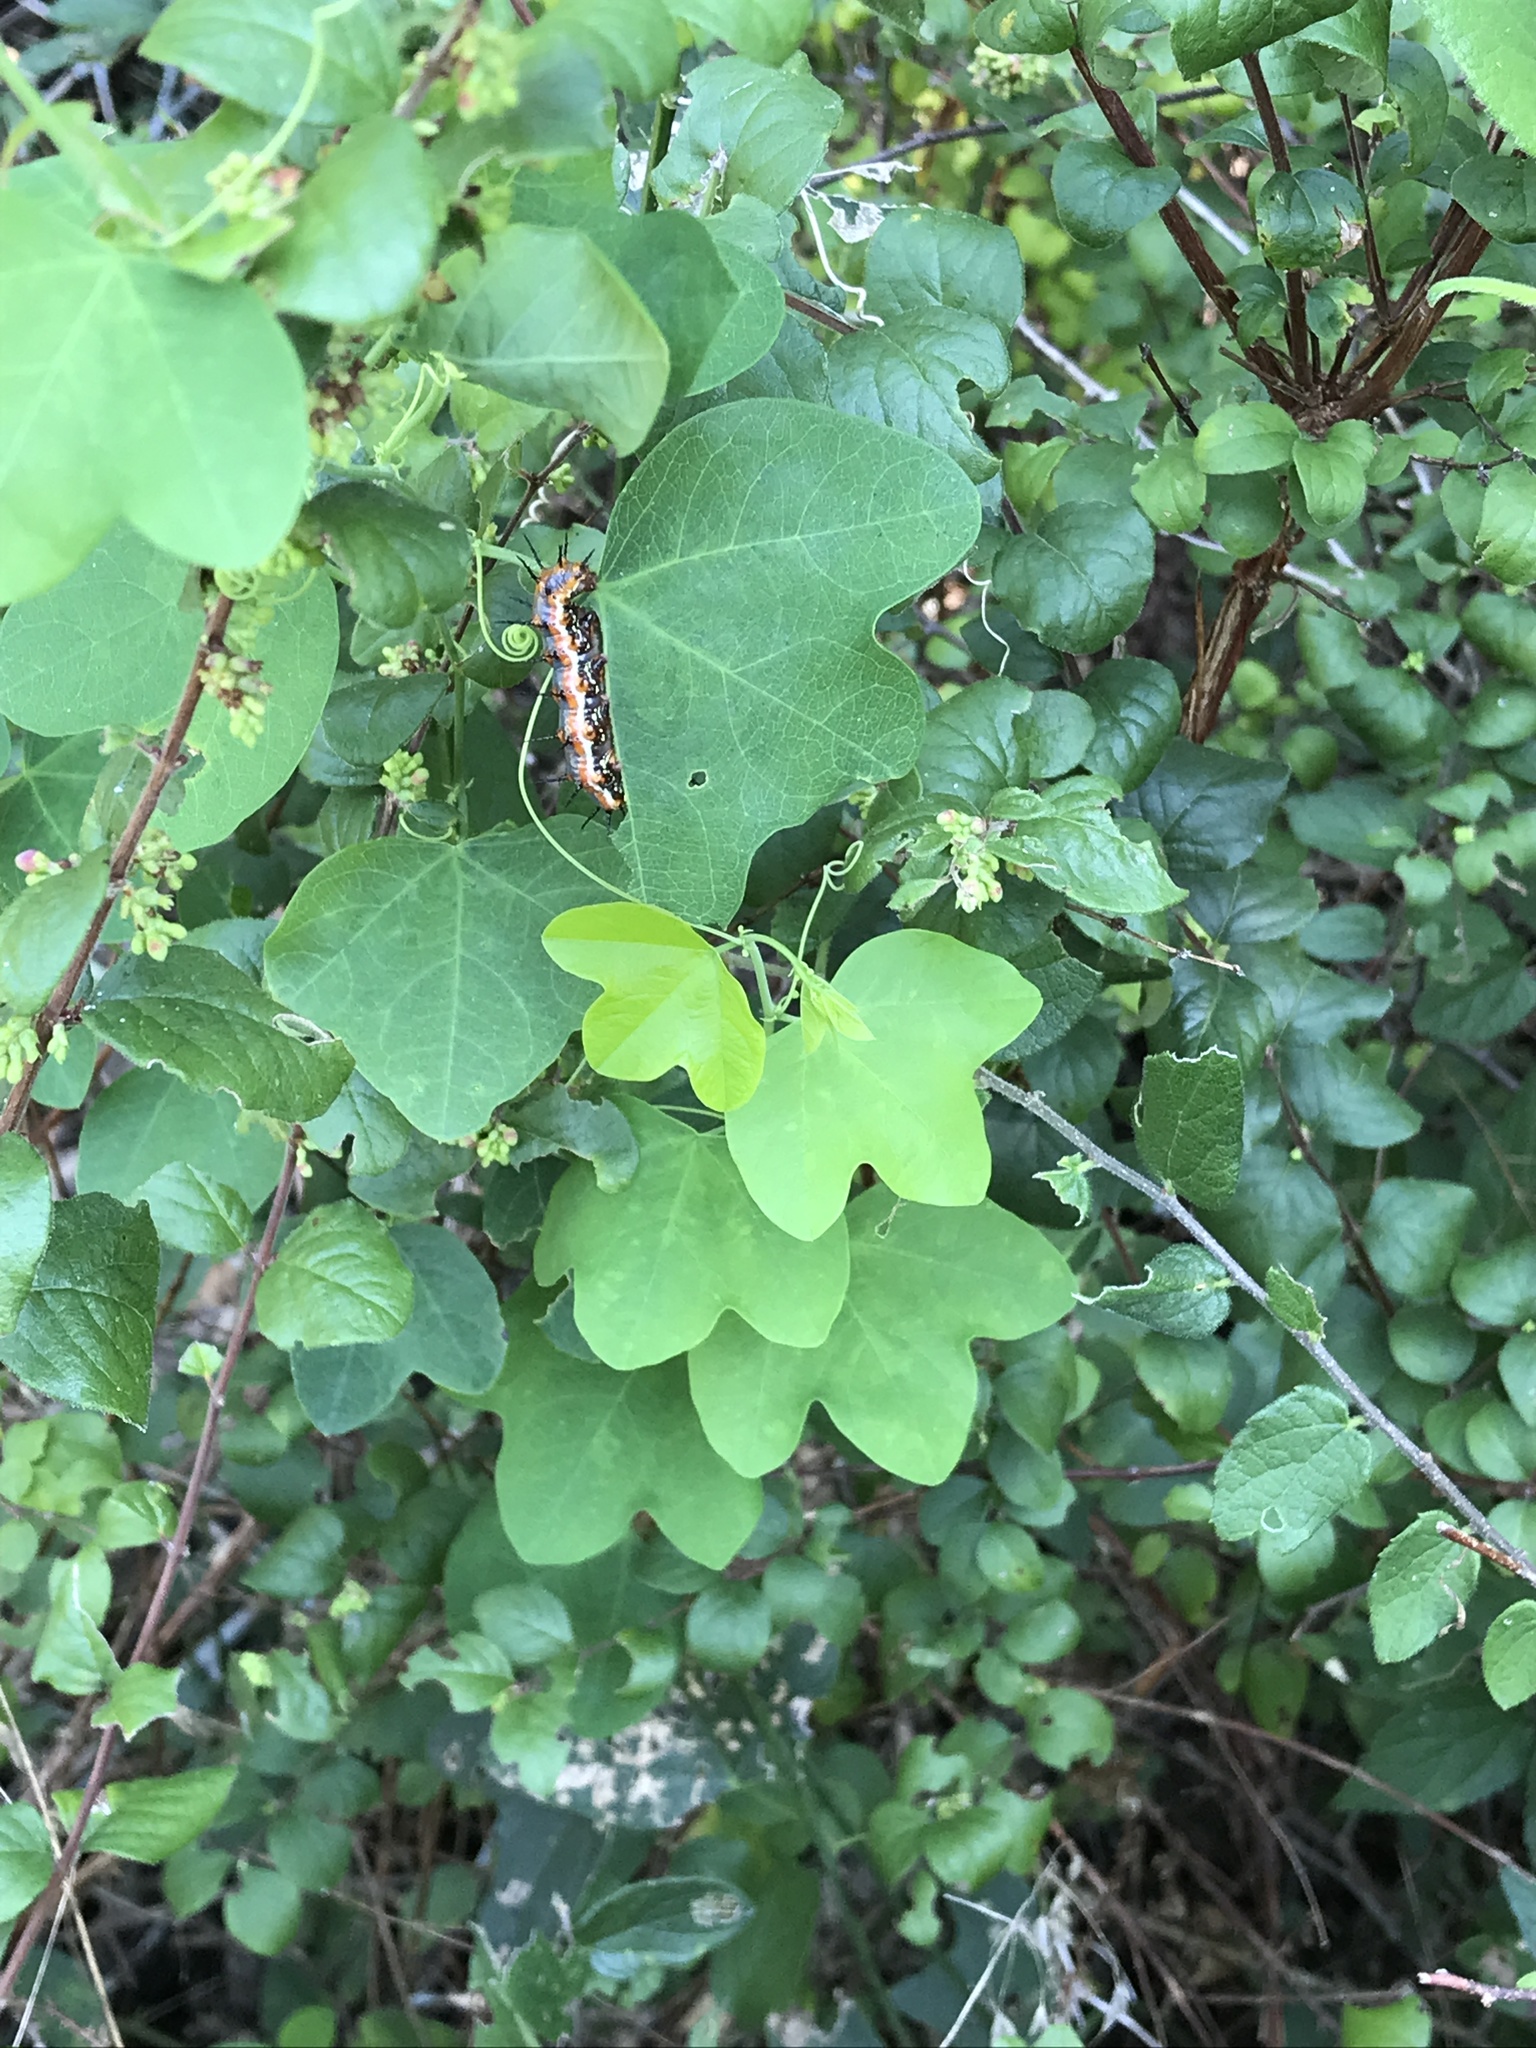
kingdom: Animalia
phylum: Arthropoda
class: Insecta
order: Lepidoptera
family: Nymphalidae
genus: Dione
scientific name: Dione vanillae
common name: Gulf fritillary
